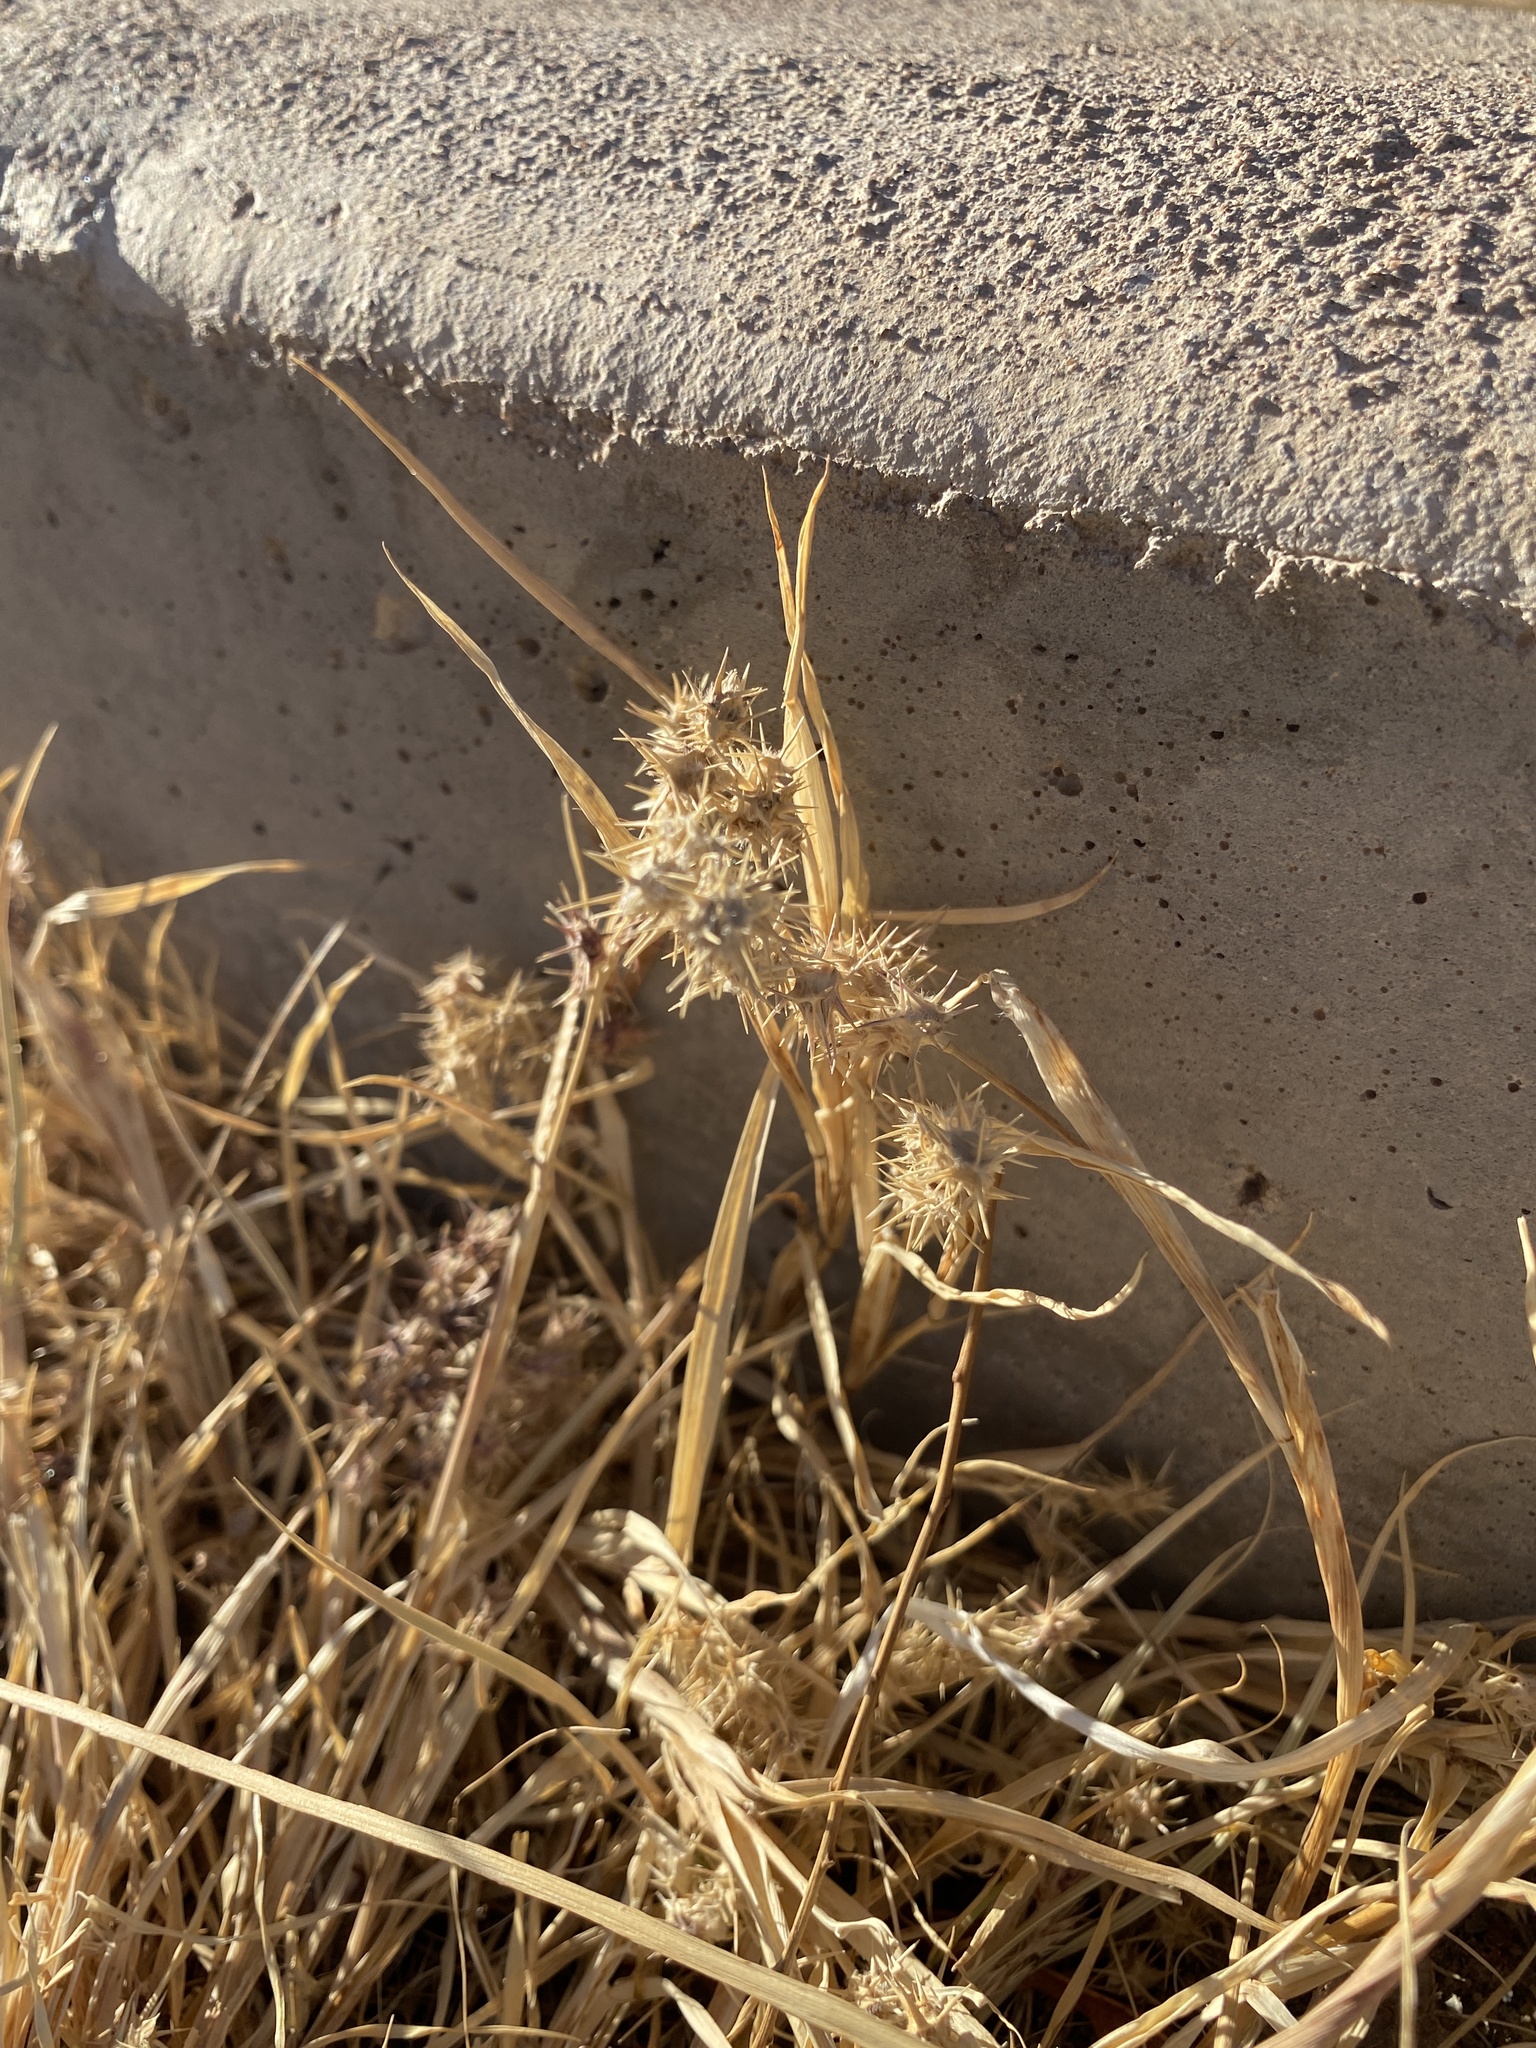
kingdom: Plantae
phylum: Tracheophyta
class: Liliopsida
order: Poales
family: Poaceae
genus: Cenchrus
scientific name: Cenchrus spinifex
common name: Coast sandbur
